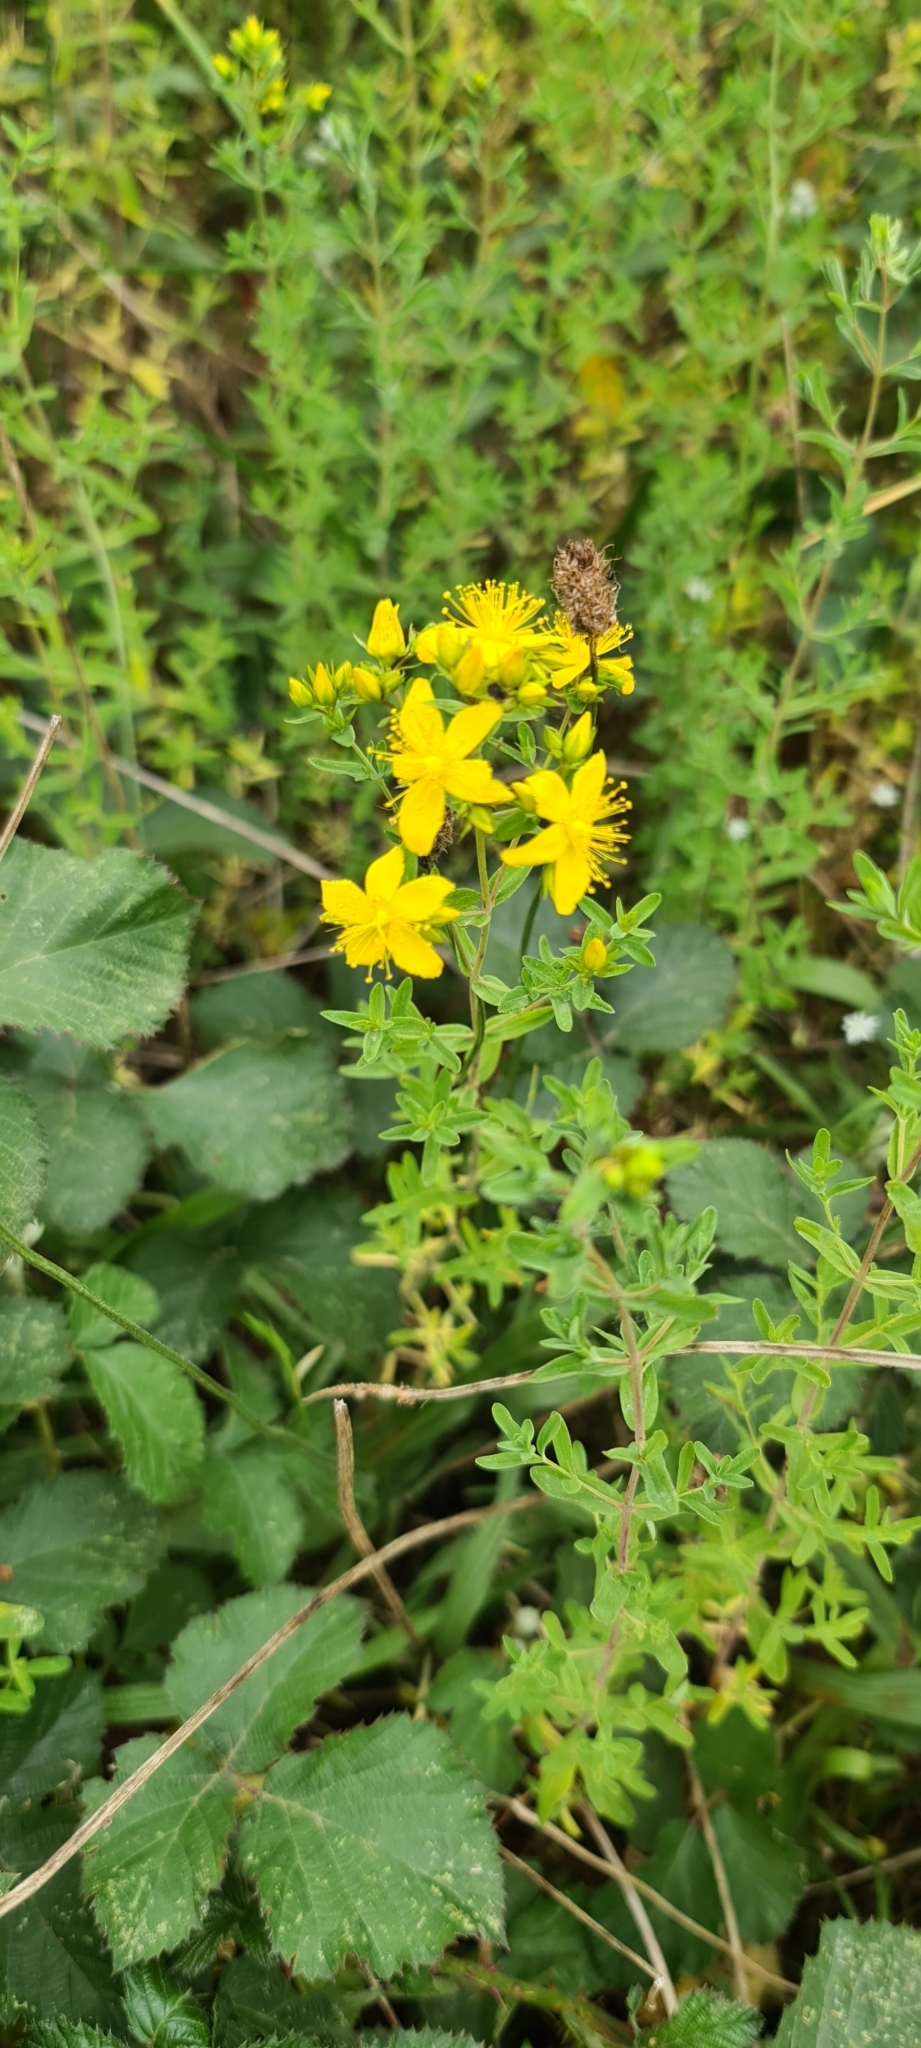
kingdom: Plantae
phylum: Tracheophyta
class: Magnoliopsida
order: Malpighiales
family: Hypericaceae
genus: Hypericum
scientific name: Hypericum perforatum
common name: Common st. johnswort
